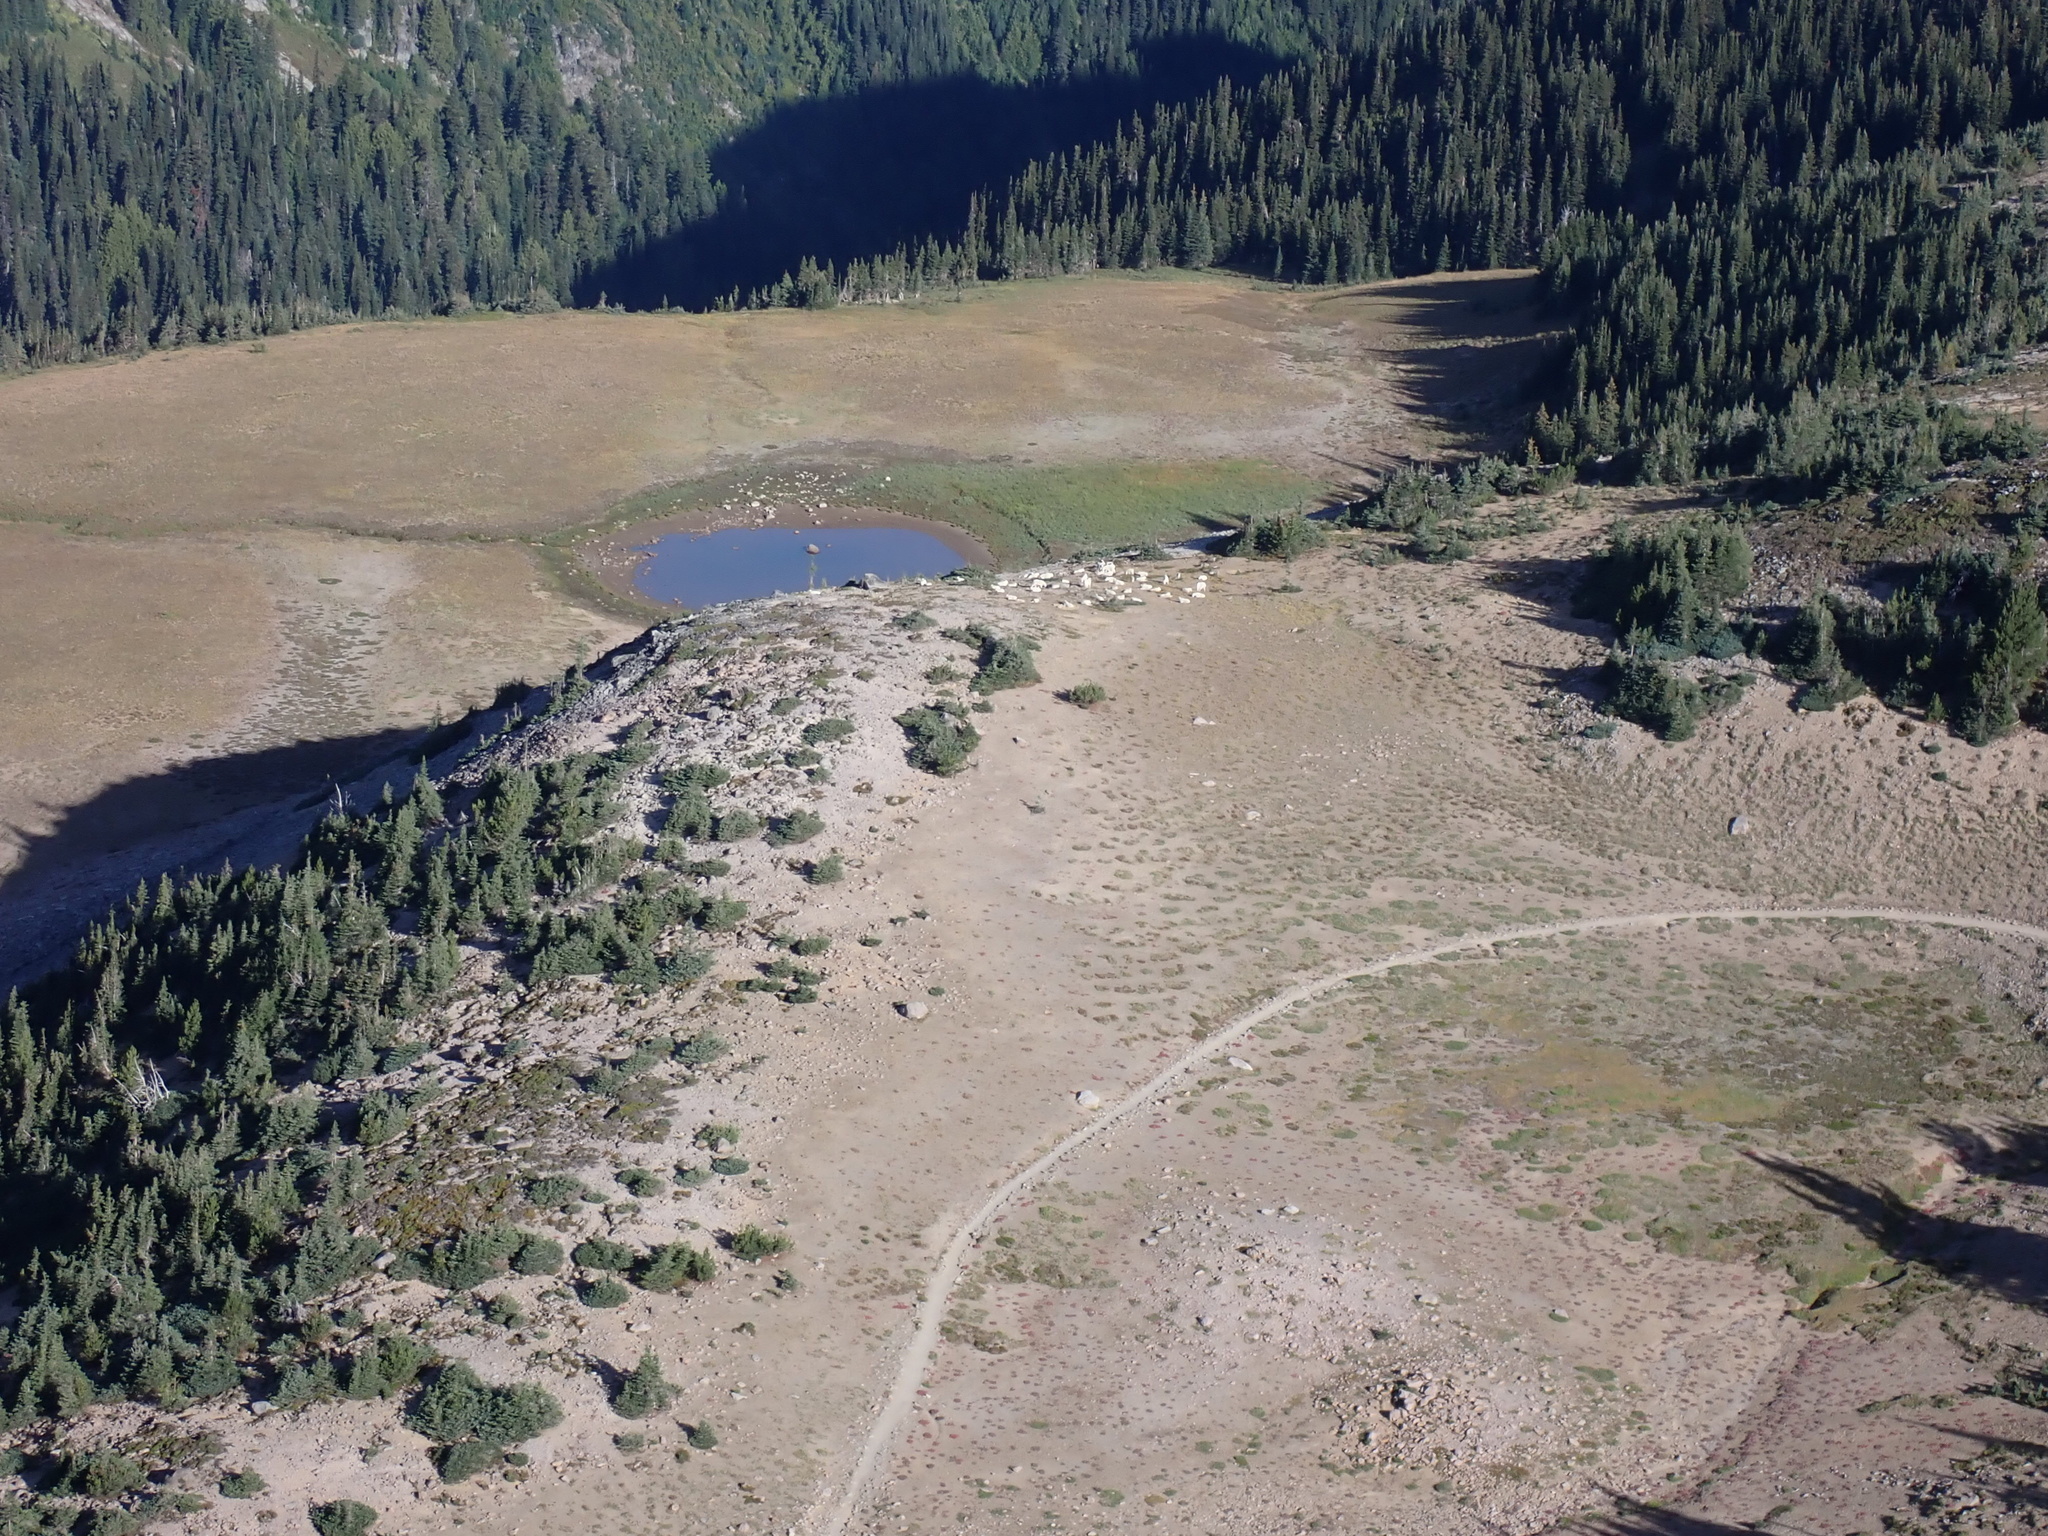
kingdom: Animalia
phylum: Chordata
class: Mammalia
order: Artiodactyla
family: Bovidae
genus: Oreamnos
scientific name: Oreamnos americanus
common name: Mountain goat
